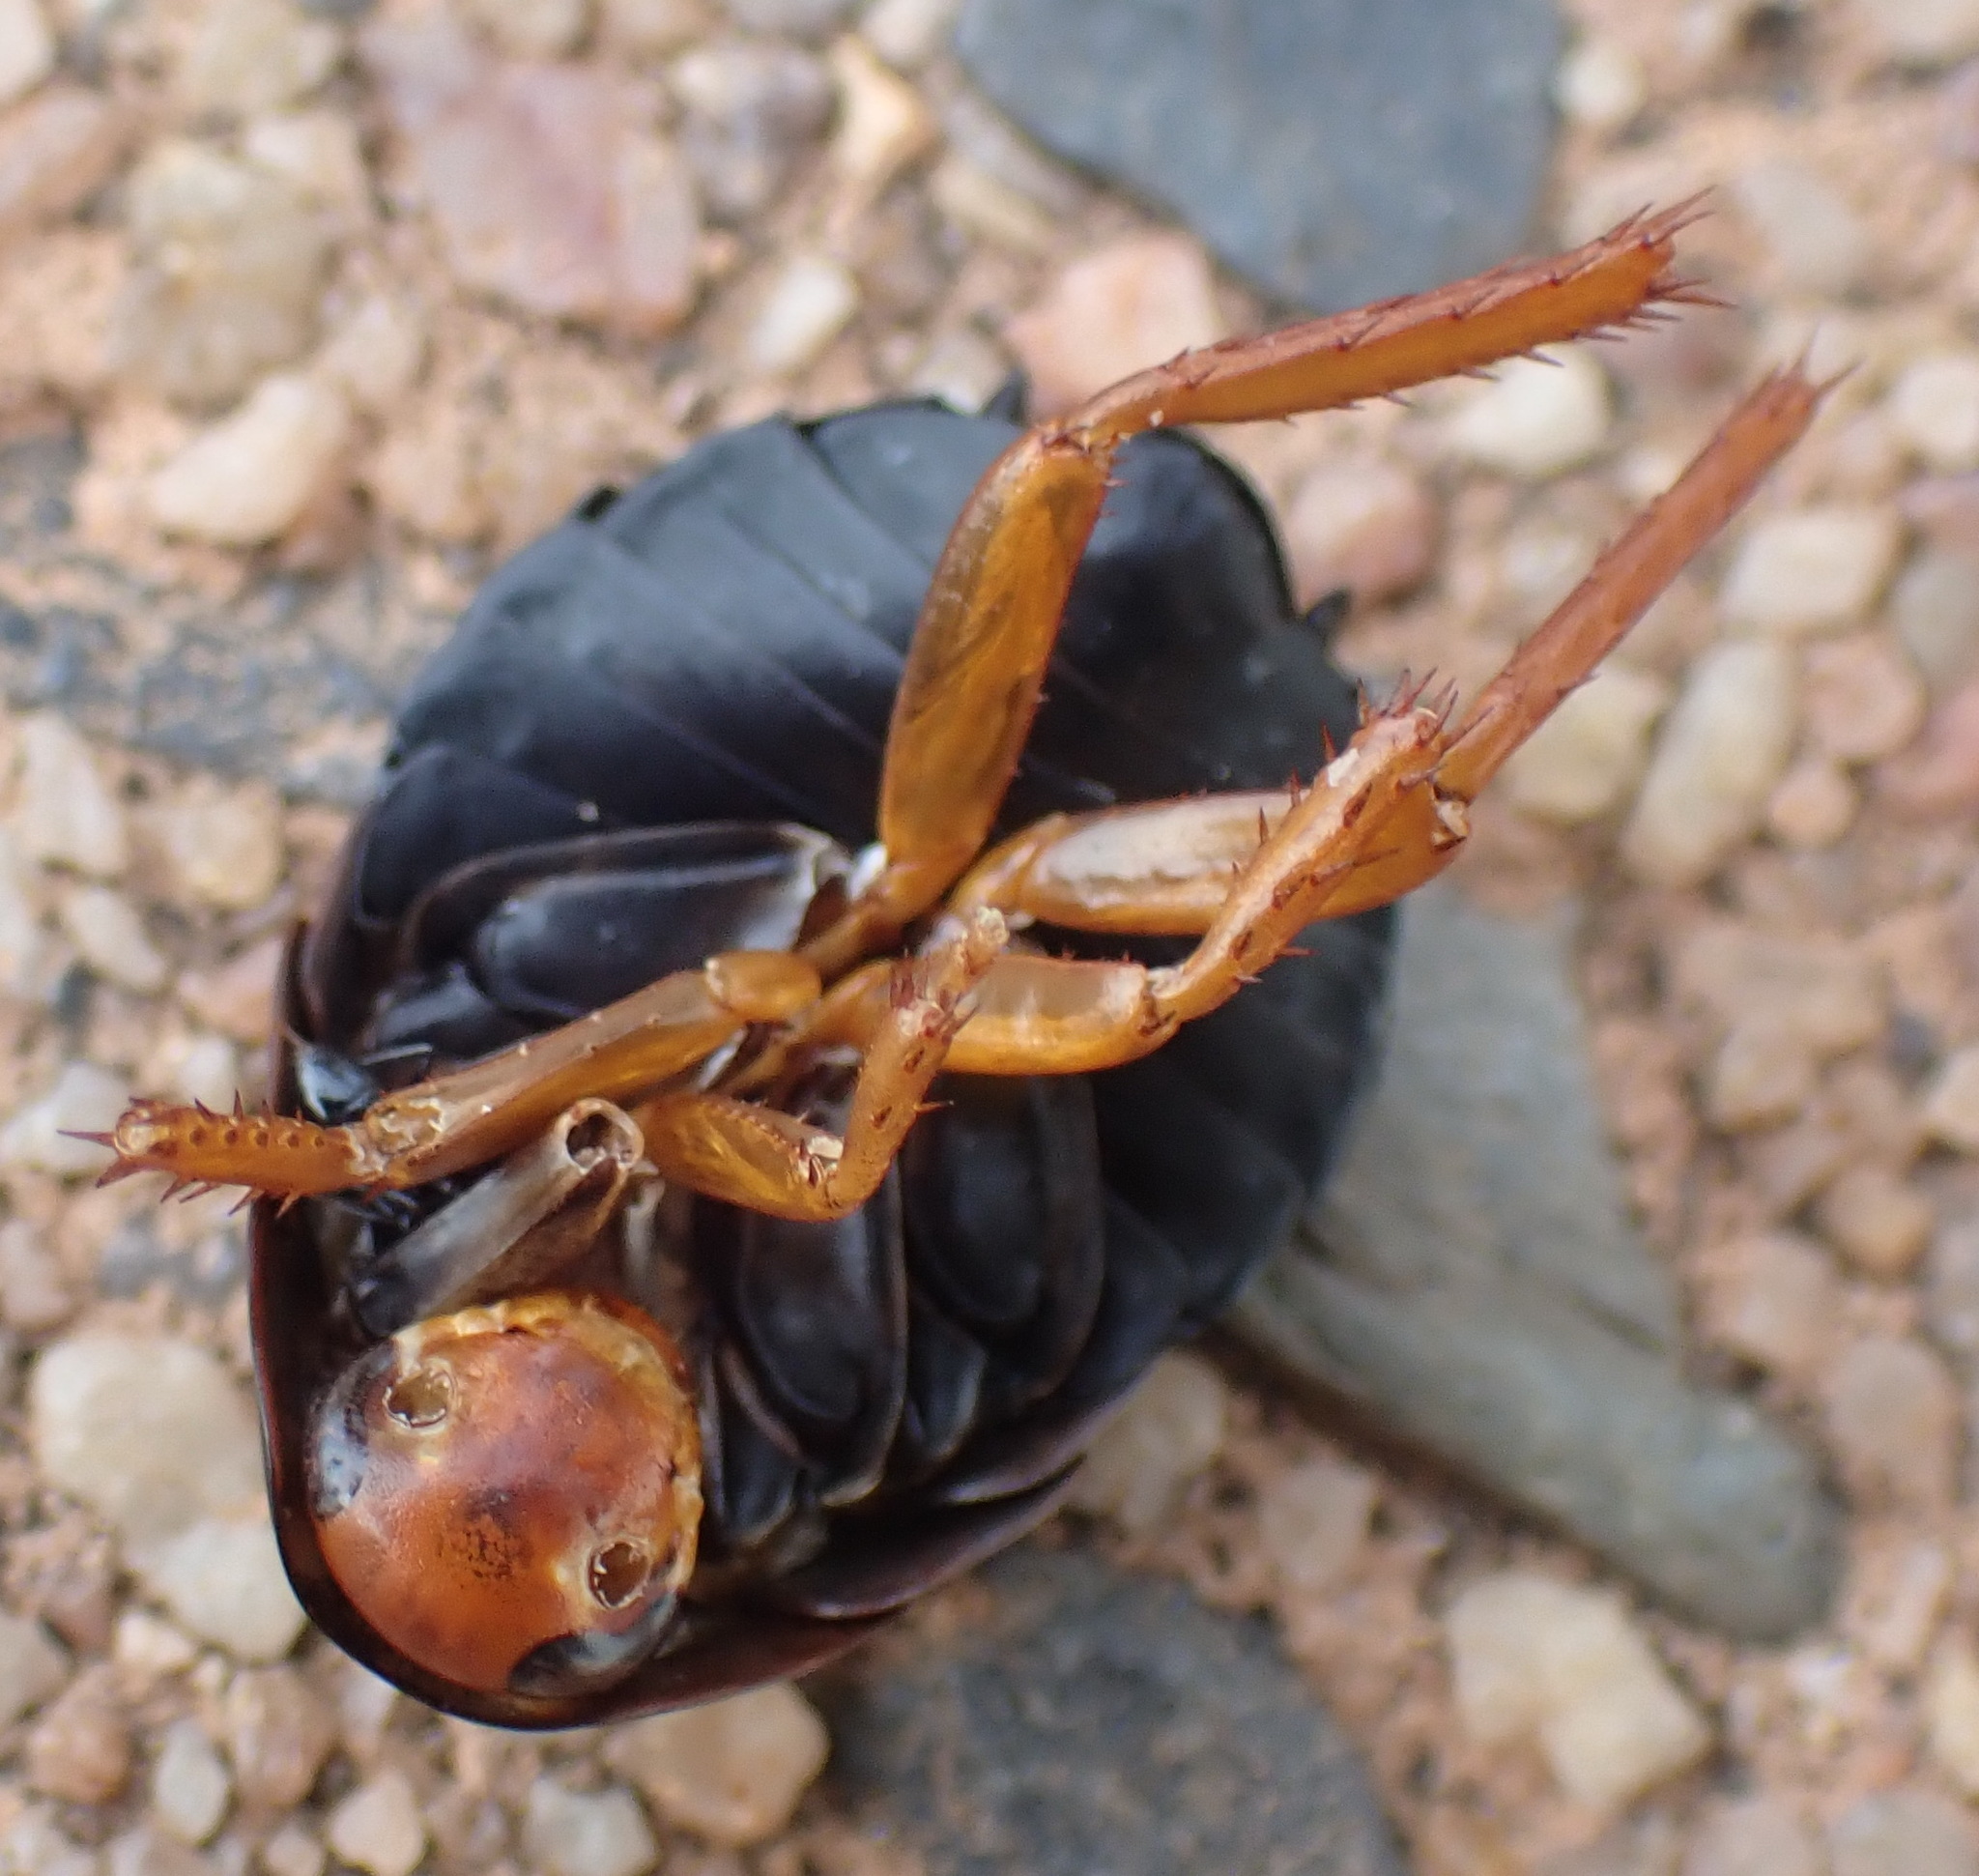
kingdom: Animalia
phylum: Arthropoda
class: Insecta
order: Blattodea
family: Blattidae
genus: Deropeltis
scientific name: Deropeltis erythrocephala
